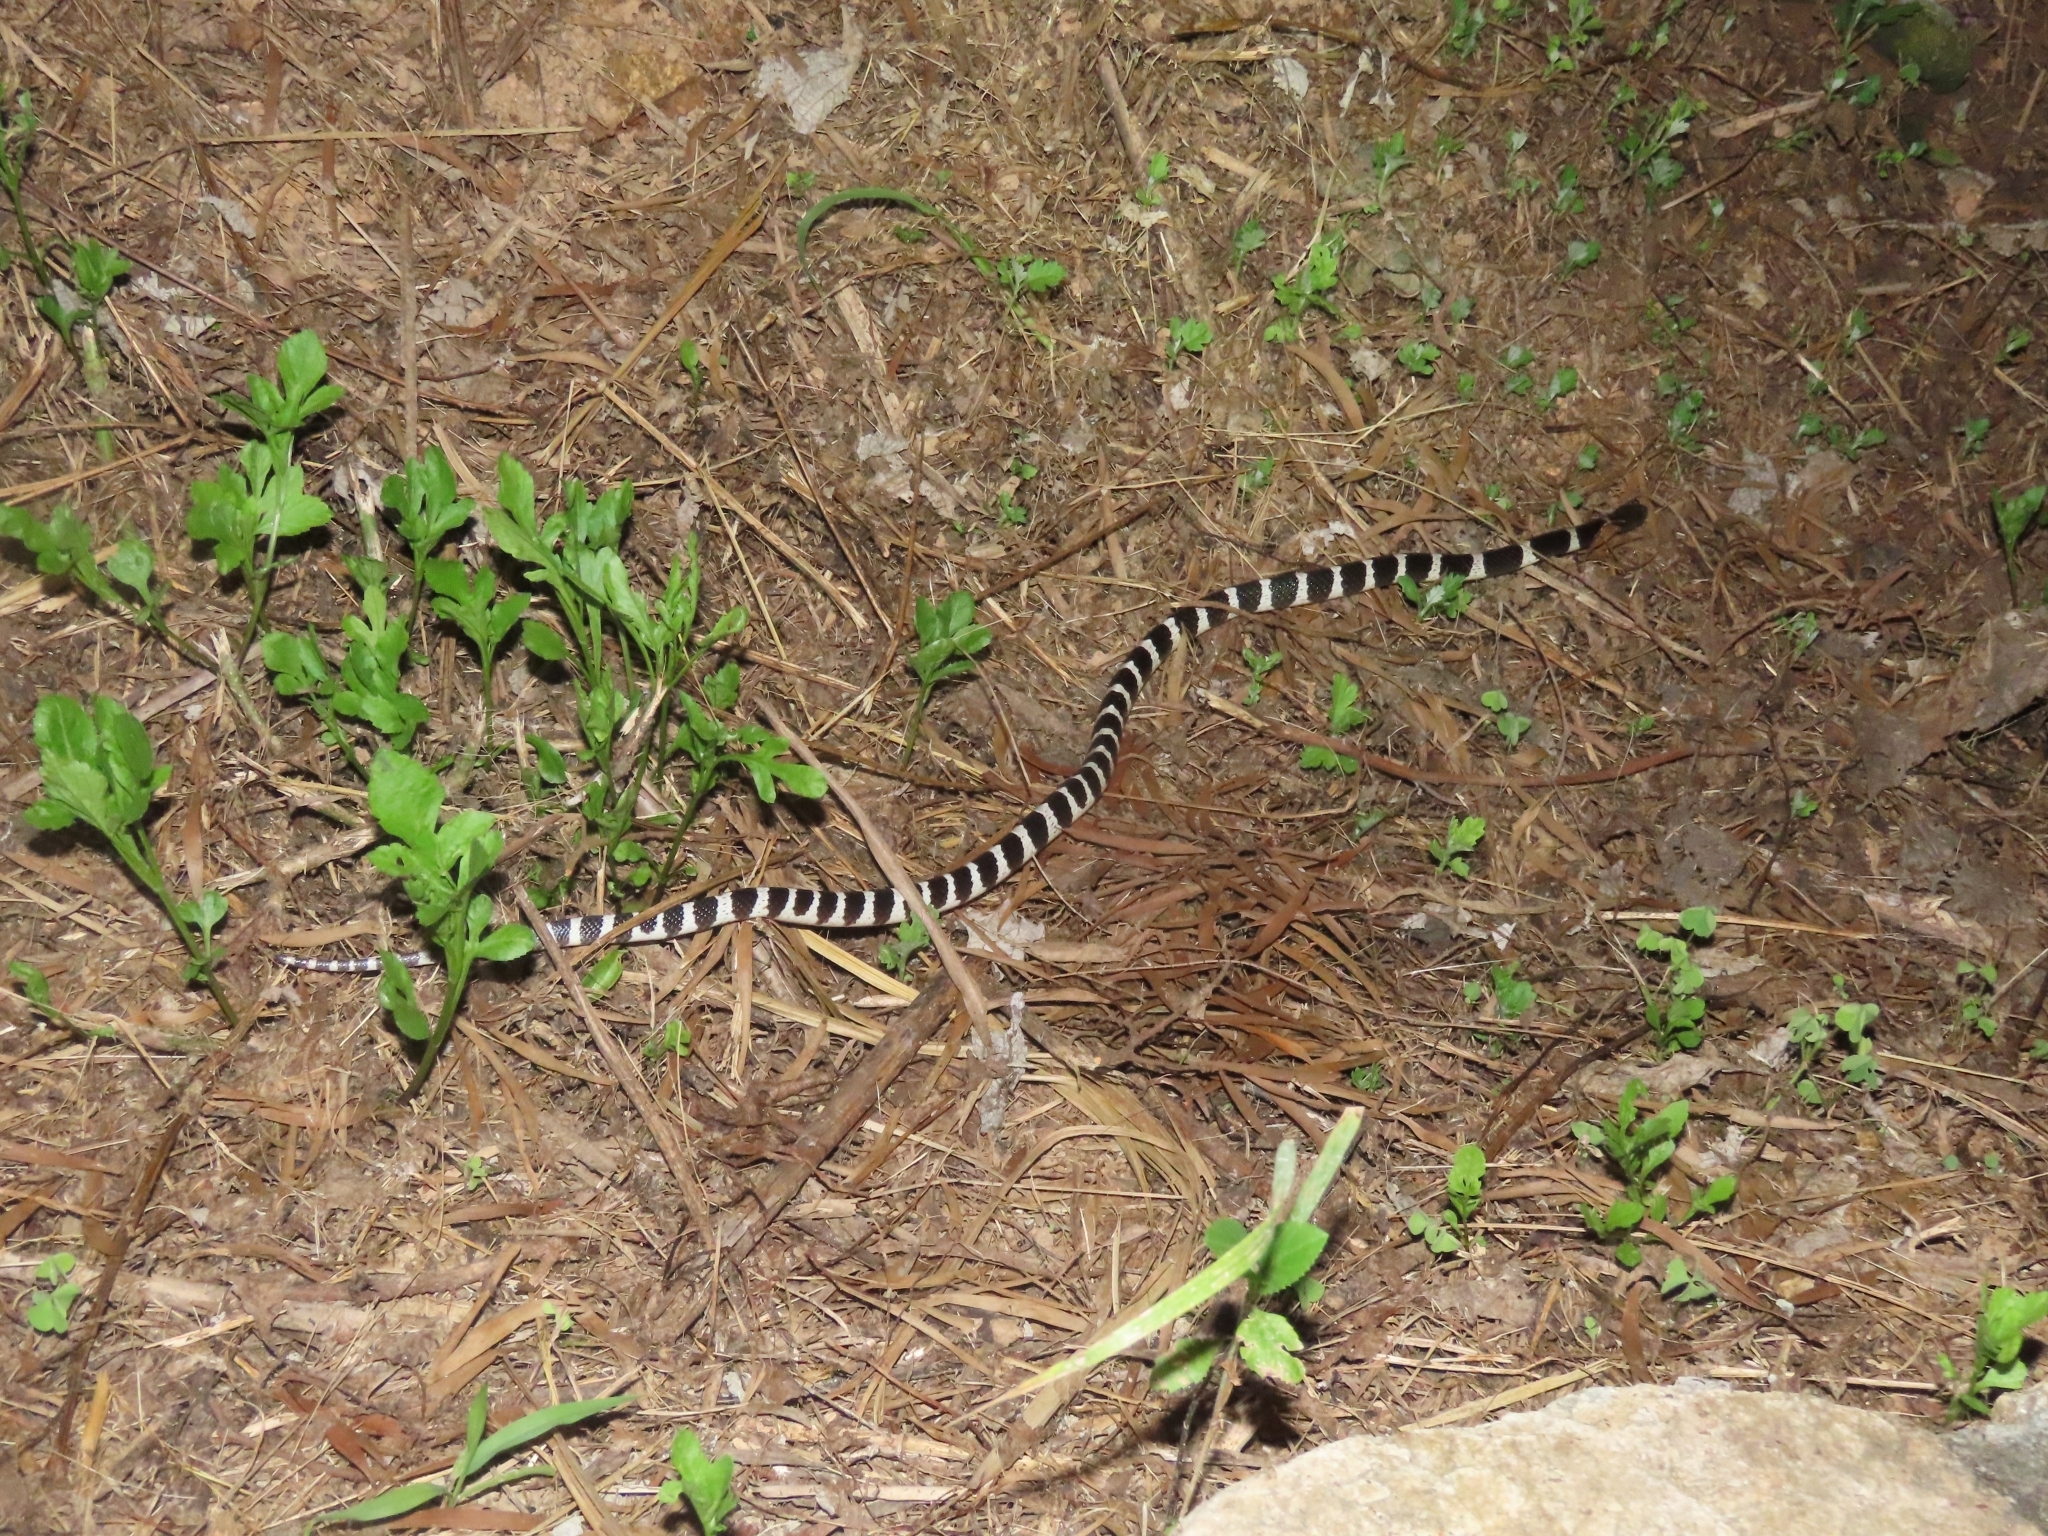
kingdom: Animalia
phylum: Chordata
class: Squamata
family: Elapidae
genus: Bungarus
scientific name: Bungarus multicinctus
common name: Many-banded krait
